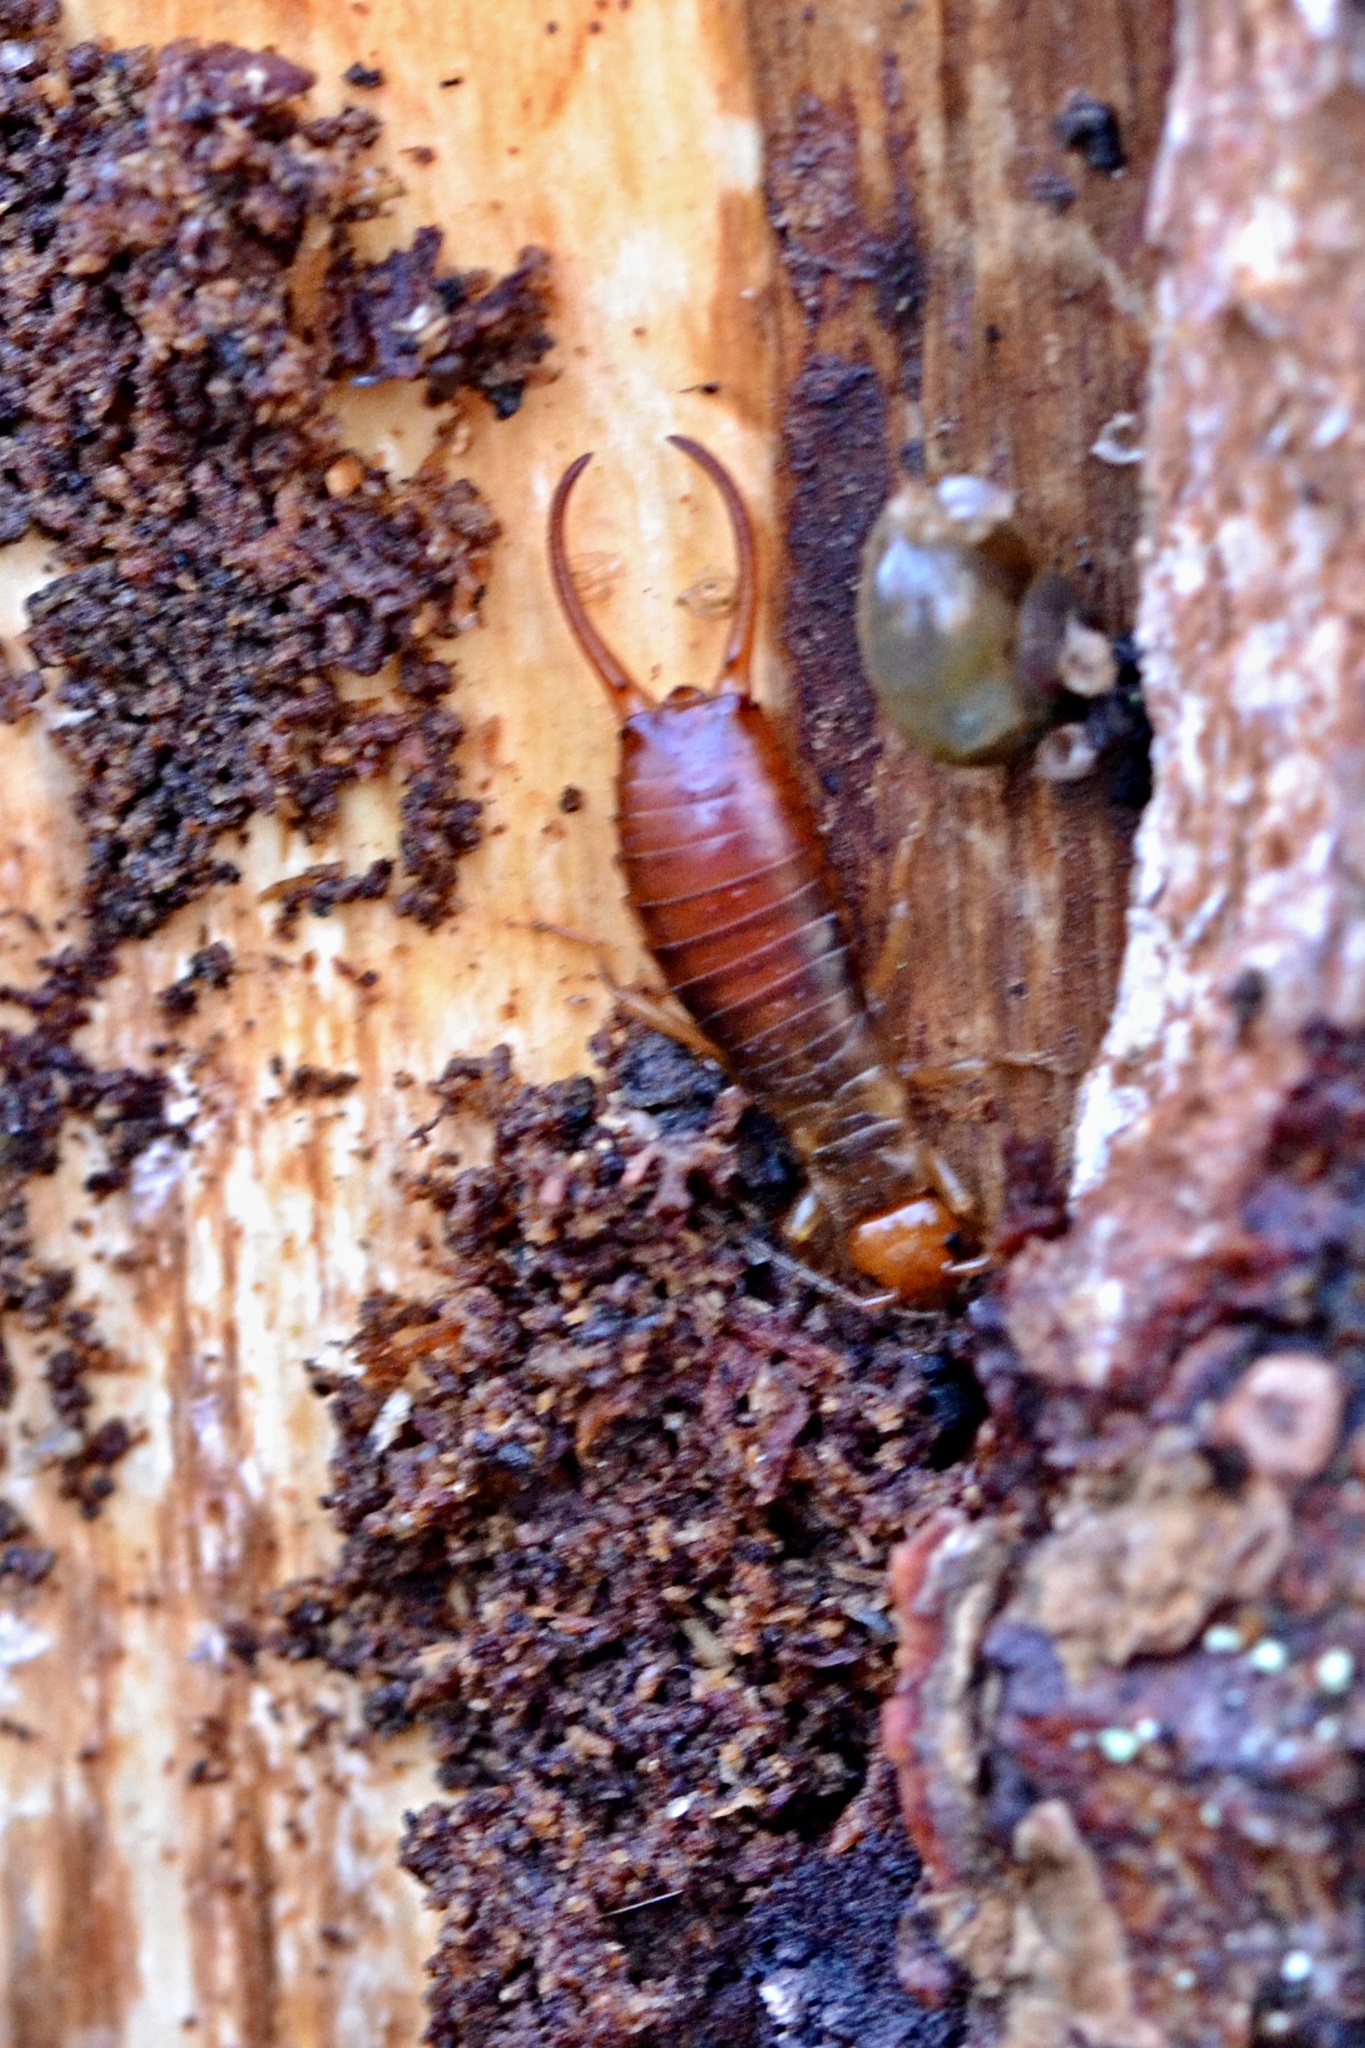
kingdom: Animalia
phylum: Arthropoda
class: Insecta
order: Dermaptera
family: Forficulidae
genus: Chelidurella
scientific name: Chelidurella acanthopygia
